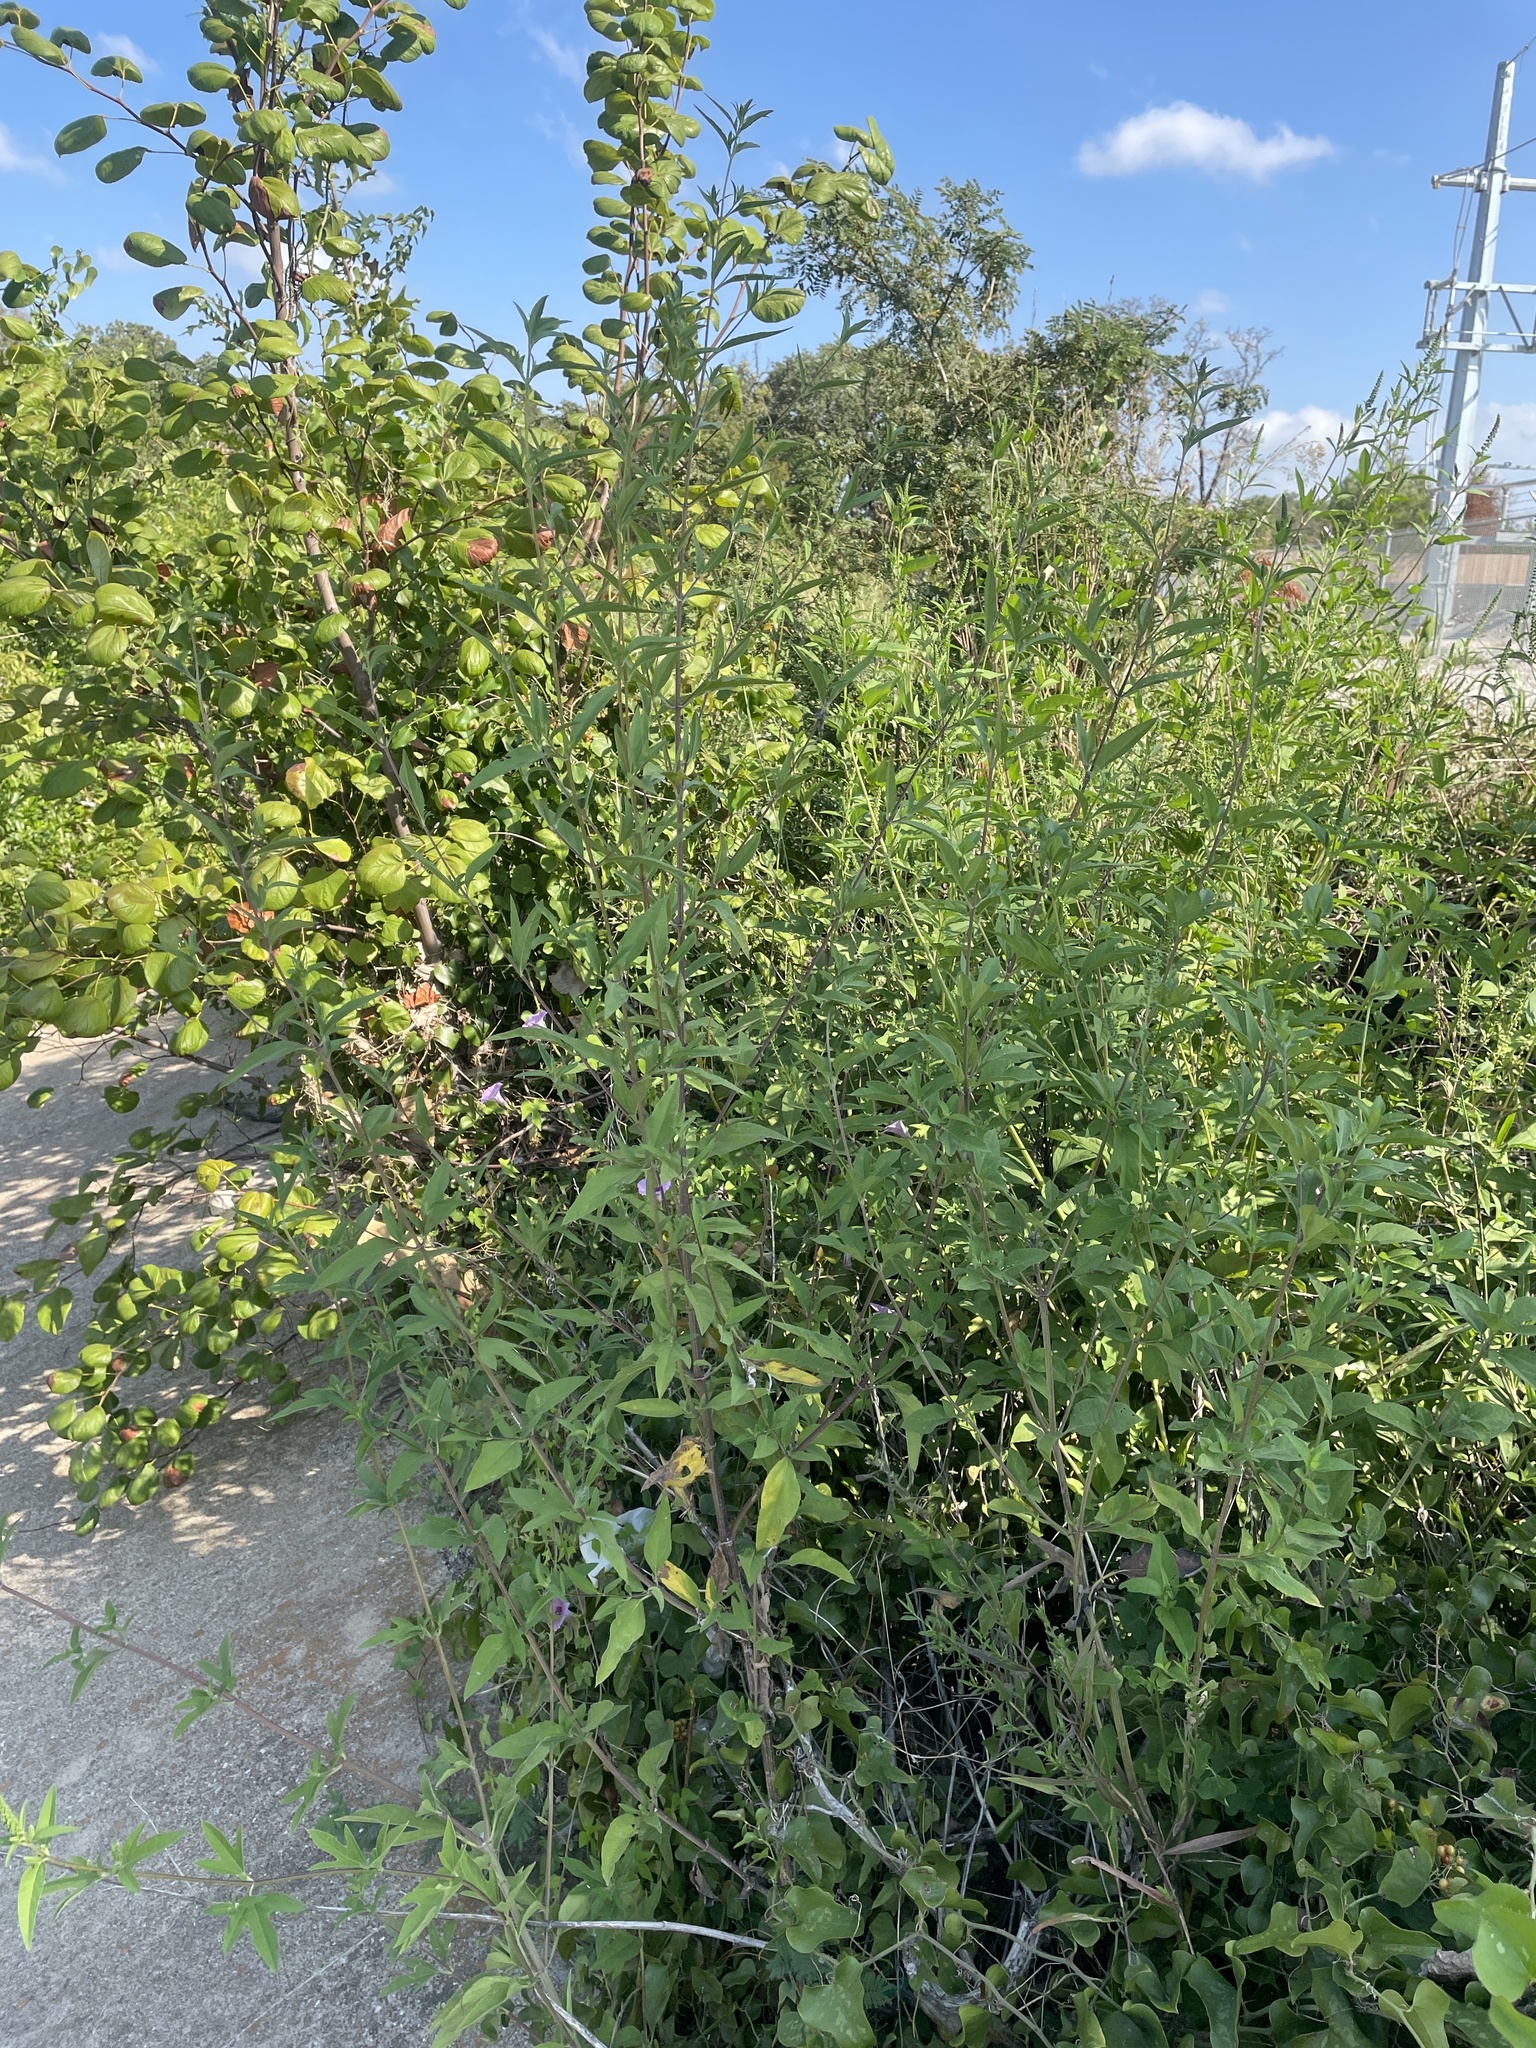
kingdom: Plantae
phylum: Tracheophyta
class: Magnoliopsida
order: Asterales
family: Asteraceae
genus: Ambrosia
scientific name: Ambrosia trifida
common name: Giant ragweed
